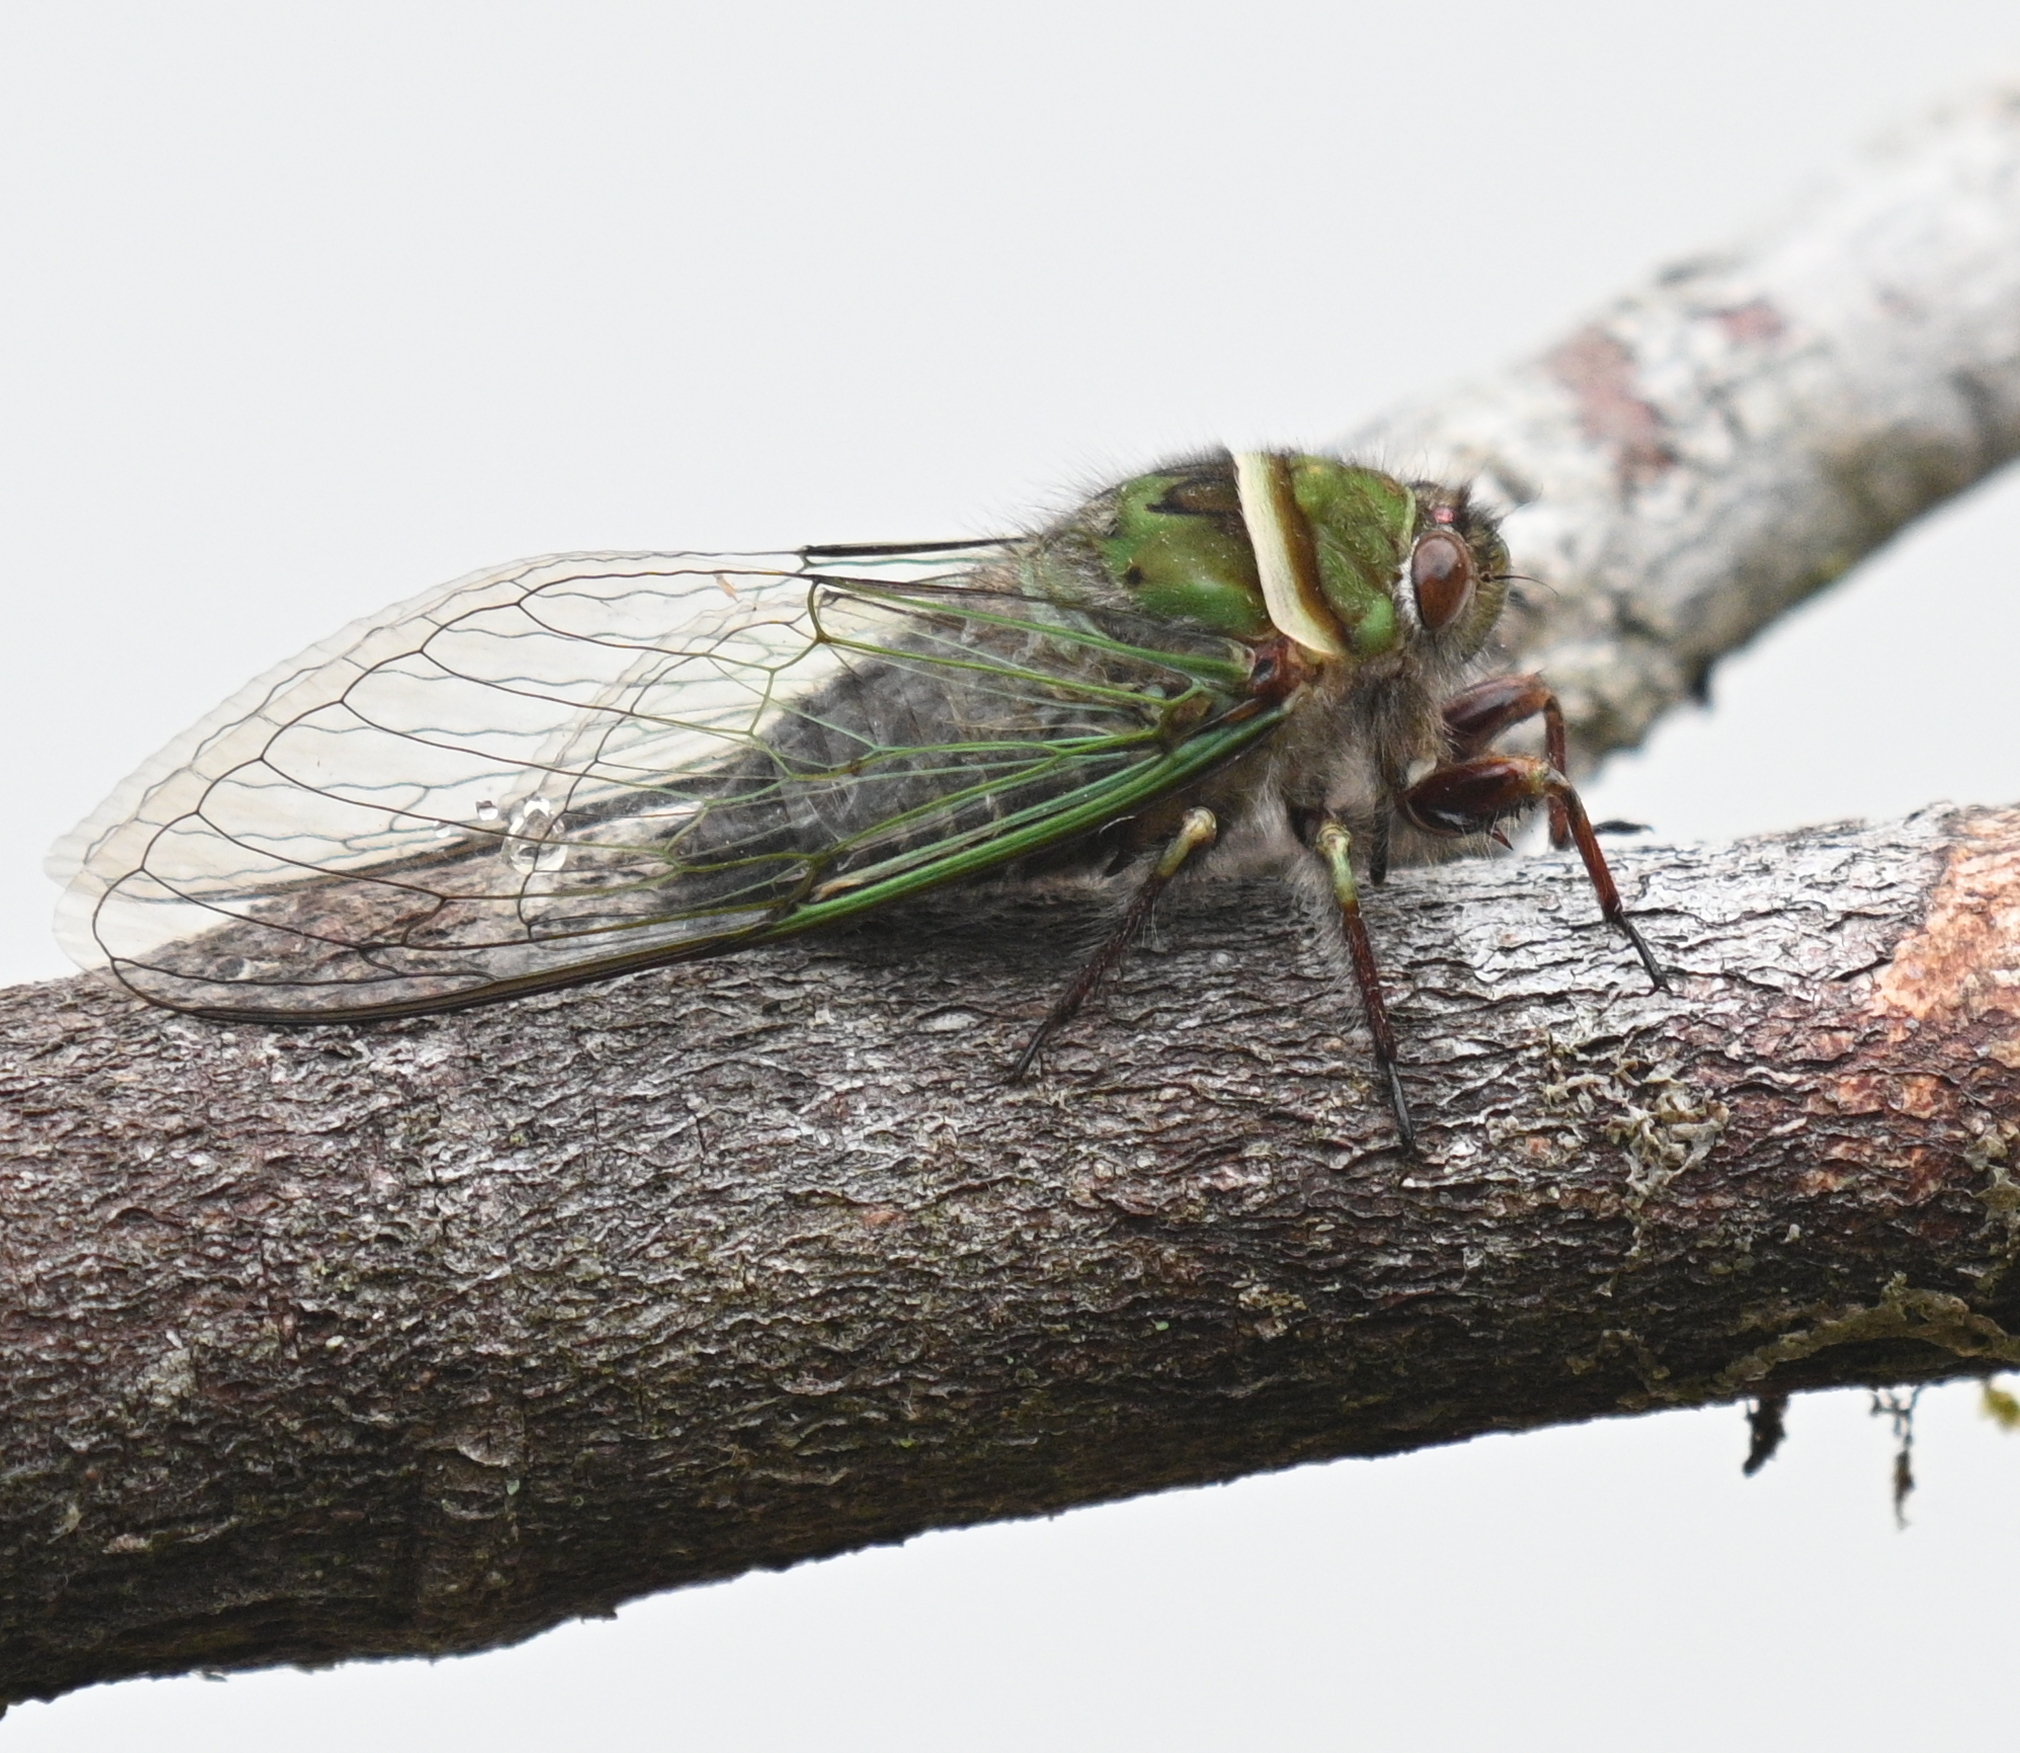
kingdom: Animalia
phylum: Arthropoda
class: Insecta
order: Hemiptera
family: Cicadidae
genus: Carineta
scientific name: Carineta bitorquata
